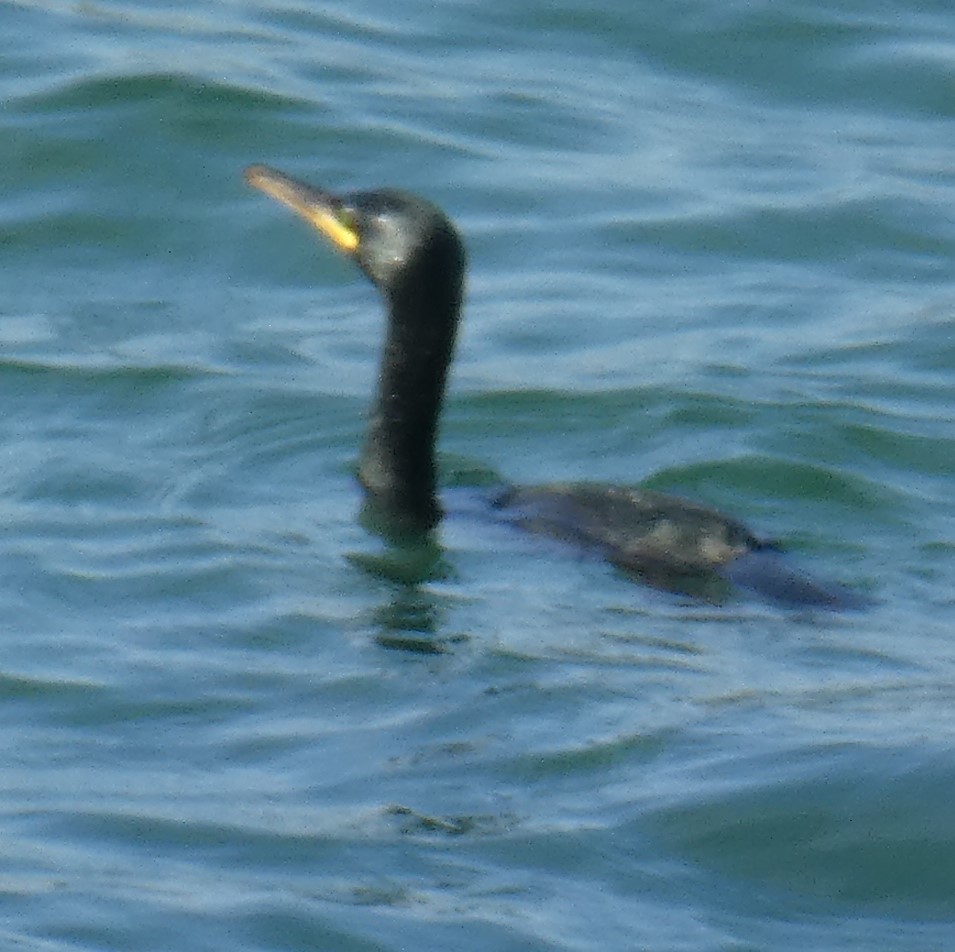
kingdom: Animalia
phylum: Chordata
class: Aves
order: Suliformes
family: Phalacrocoracidae
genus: Phalacrocorax
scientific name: Phalacrocorax aristotelis
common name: European shag
